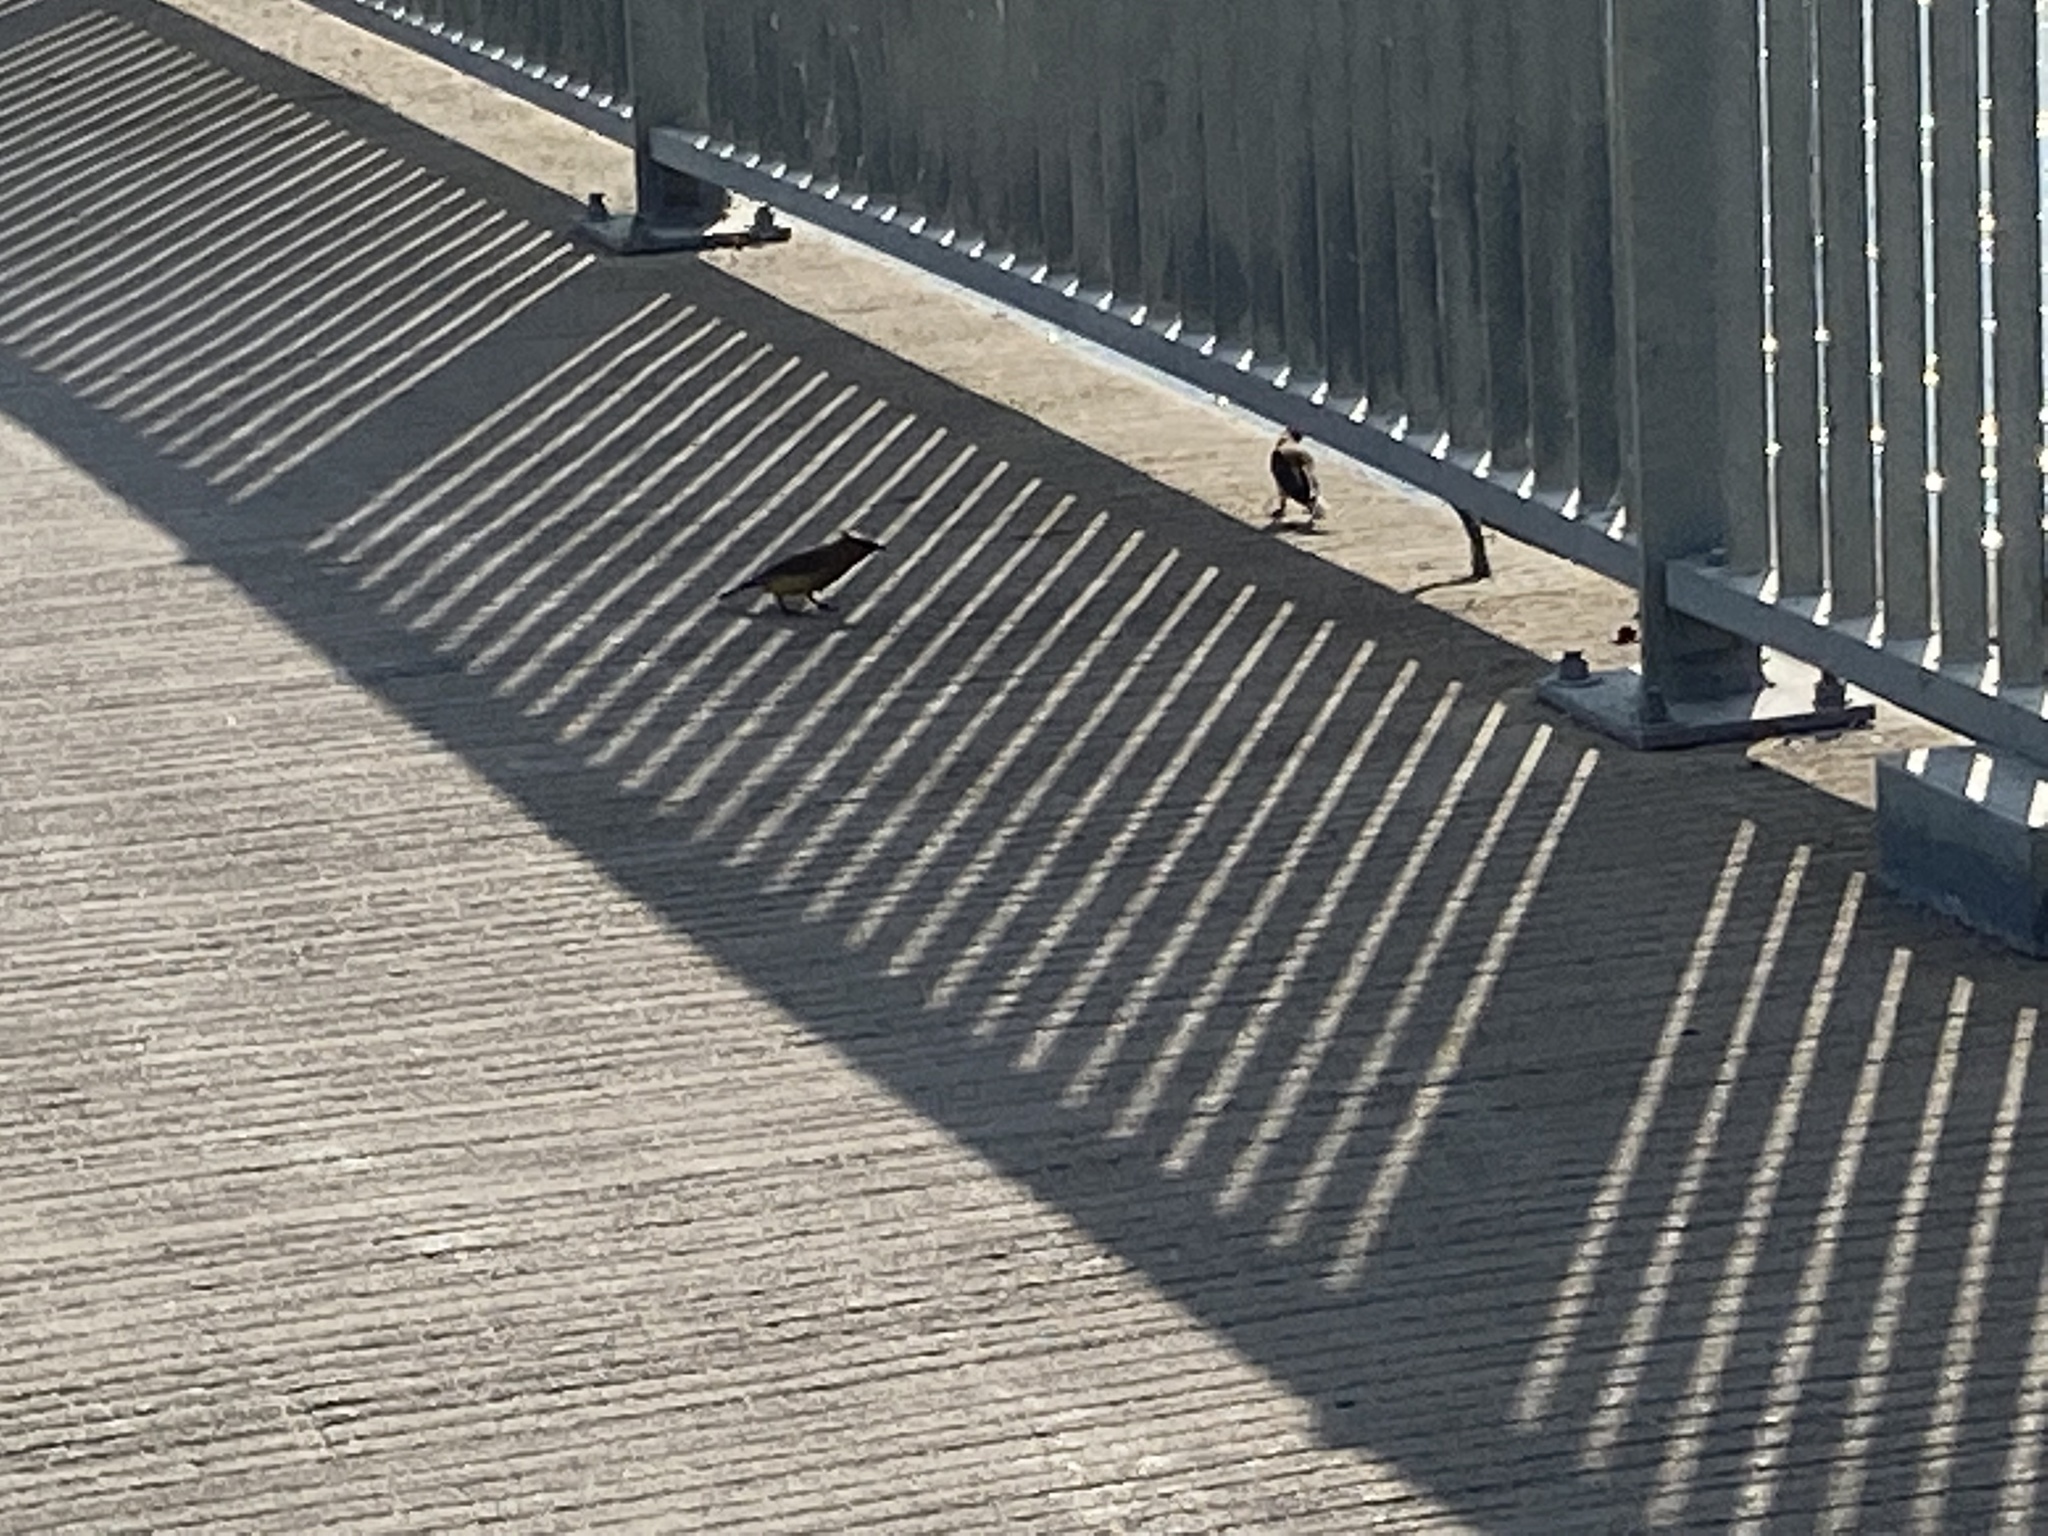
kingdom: Animalia
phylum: Chordata
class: Aves
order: Passeriformes
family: Bombycillidae
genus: Bombycilla
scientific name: Bombycilla cedrorum
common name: Cedar waxwing
